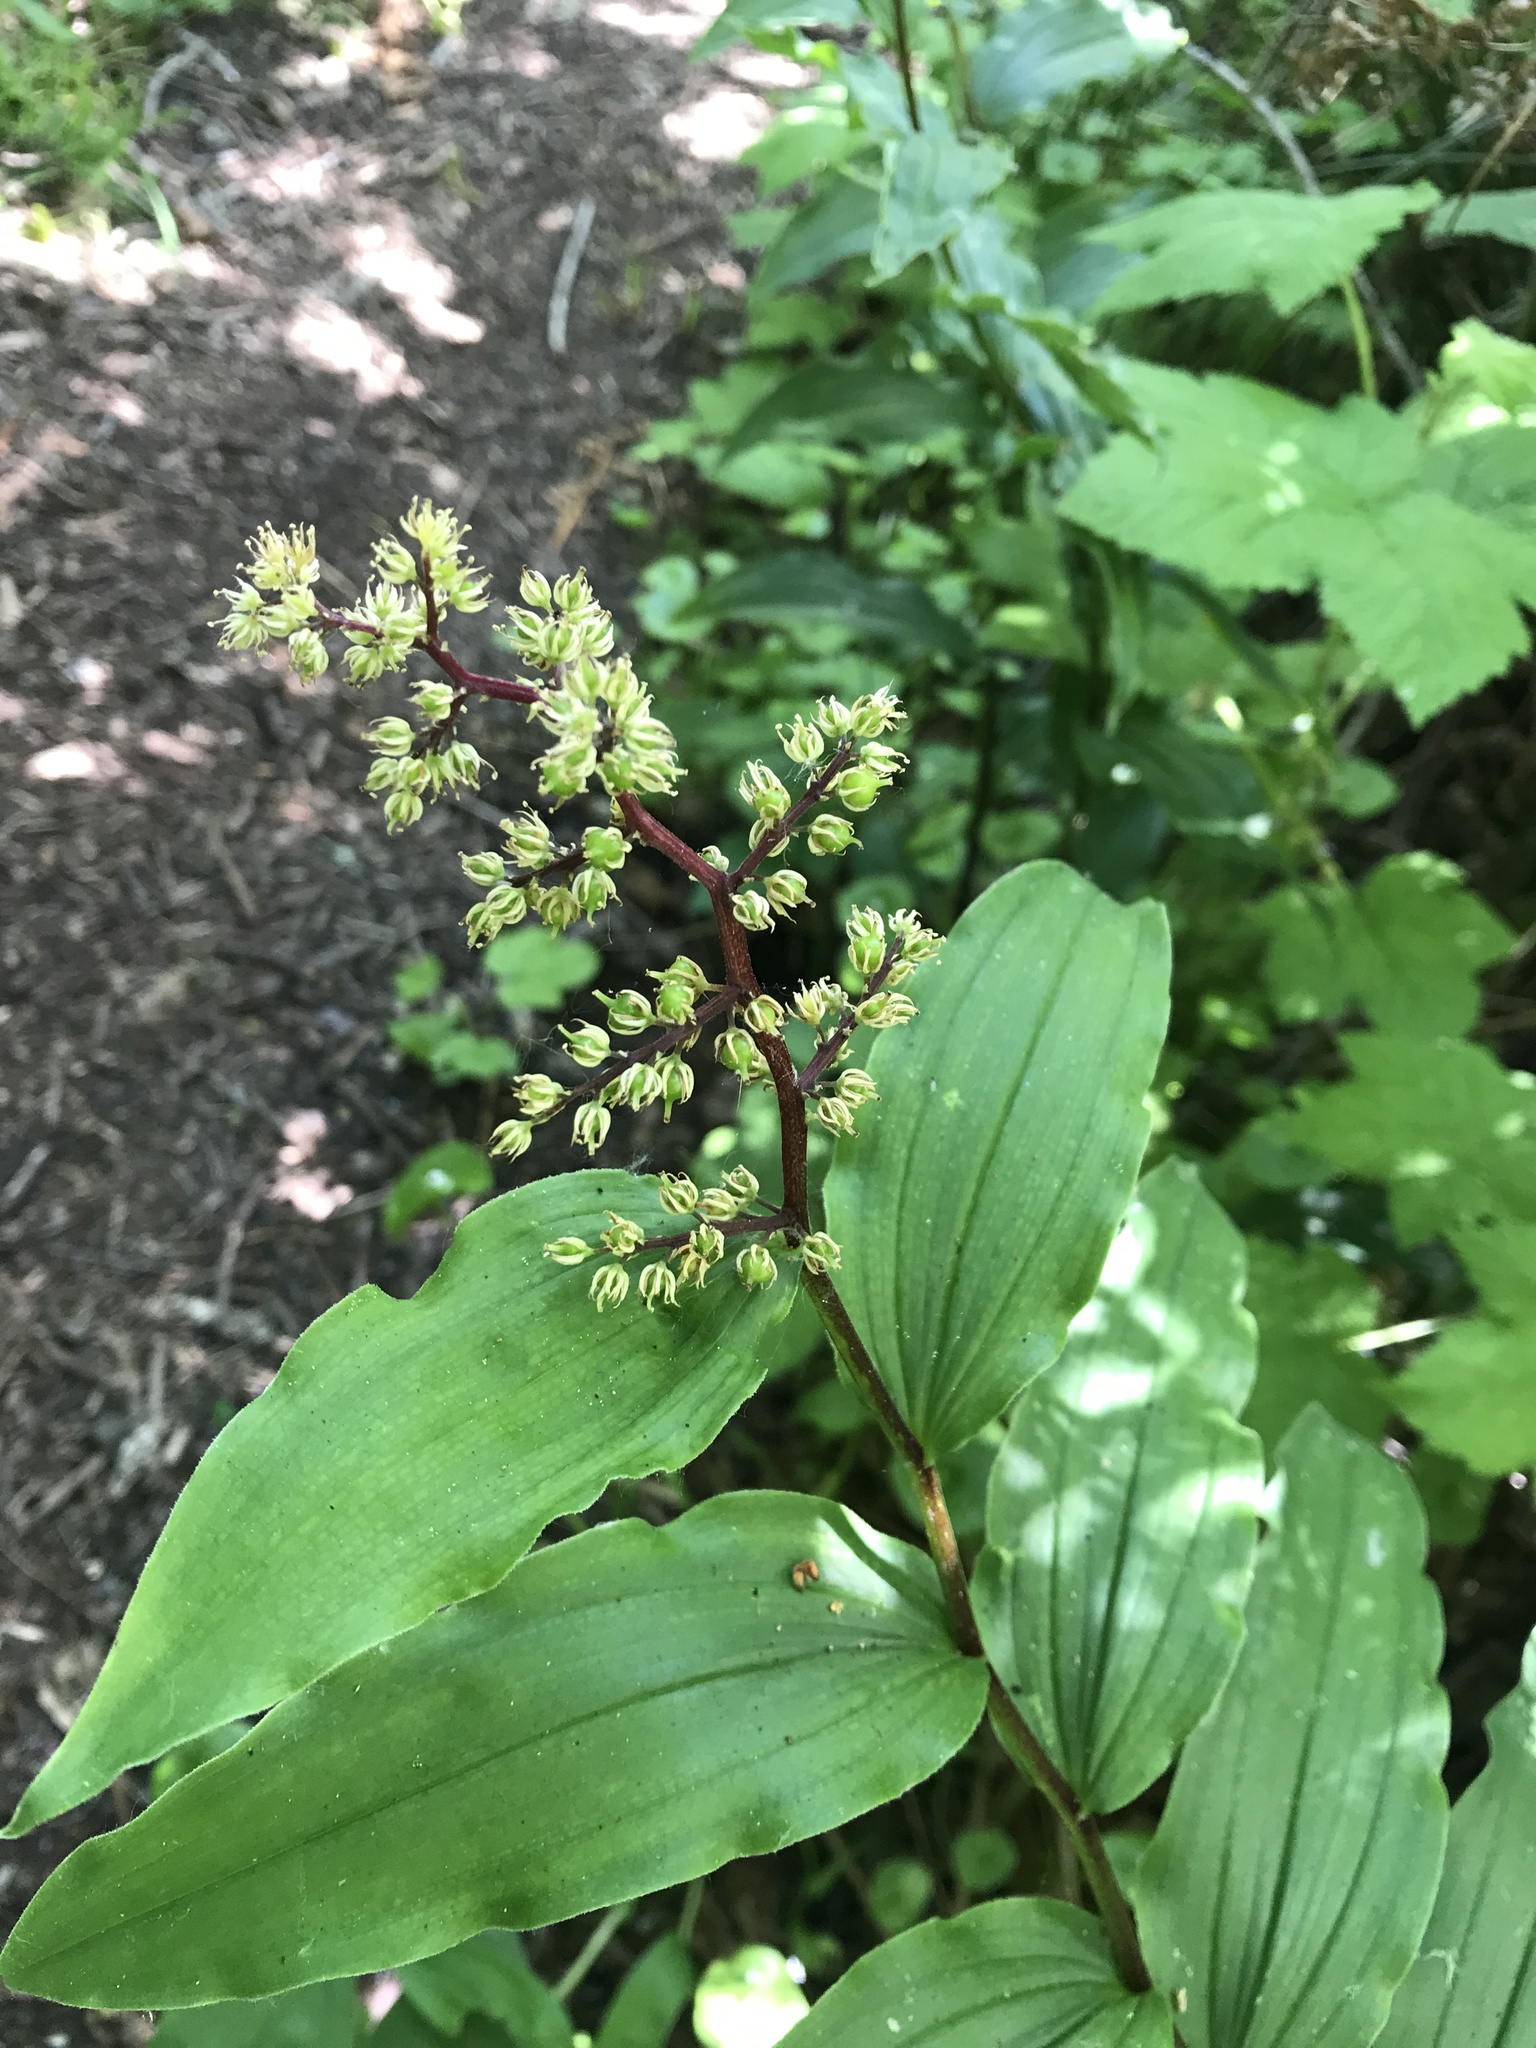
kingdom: Plantae
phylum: Tracheophyta
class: Liliopsida
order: Asparagales
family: Asparagaceae
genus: Maianthemum
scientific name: Maianthemum racemosum
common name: False spikenard
